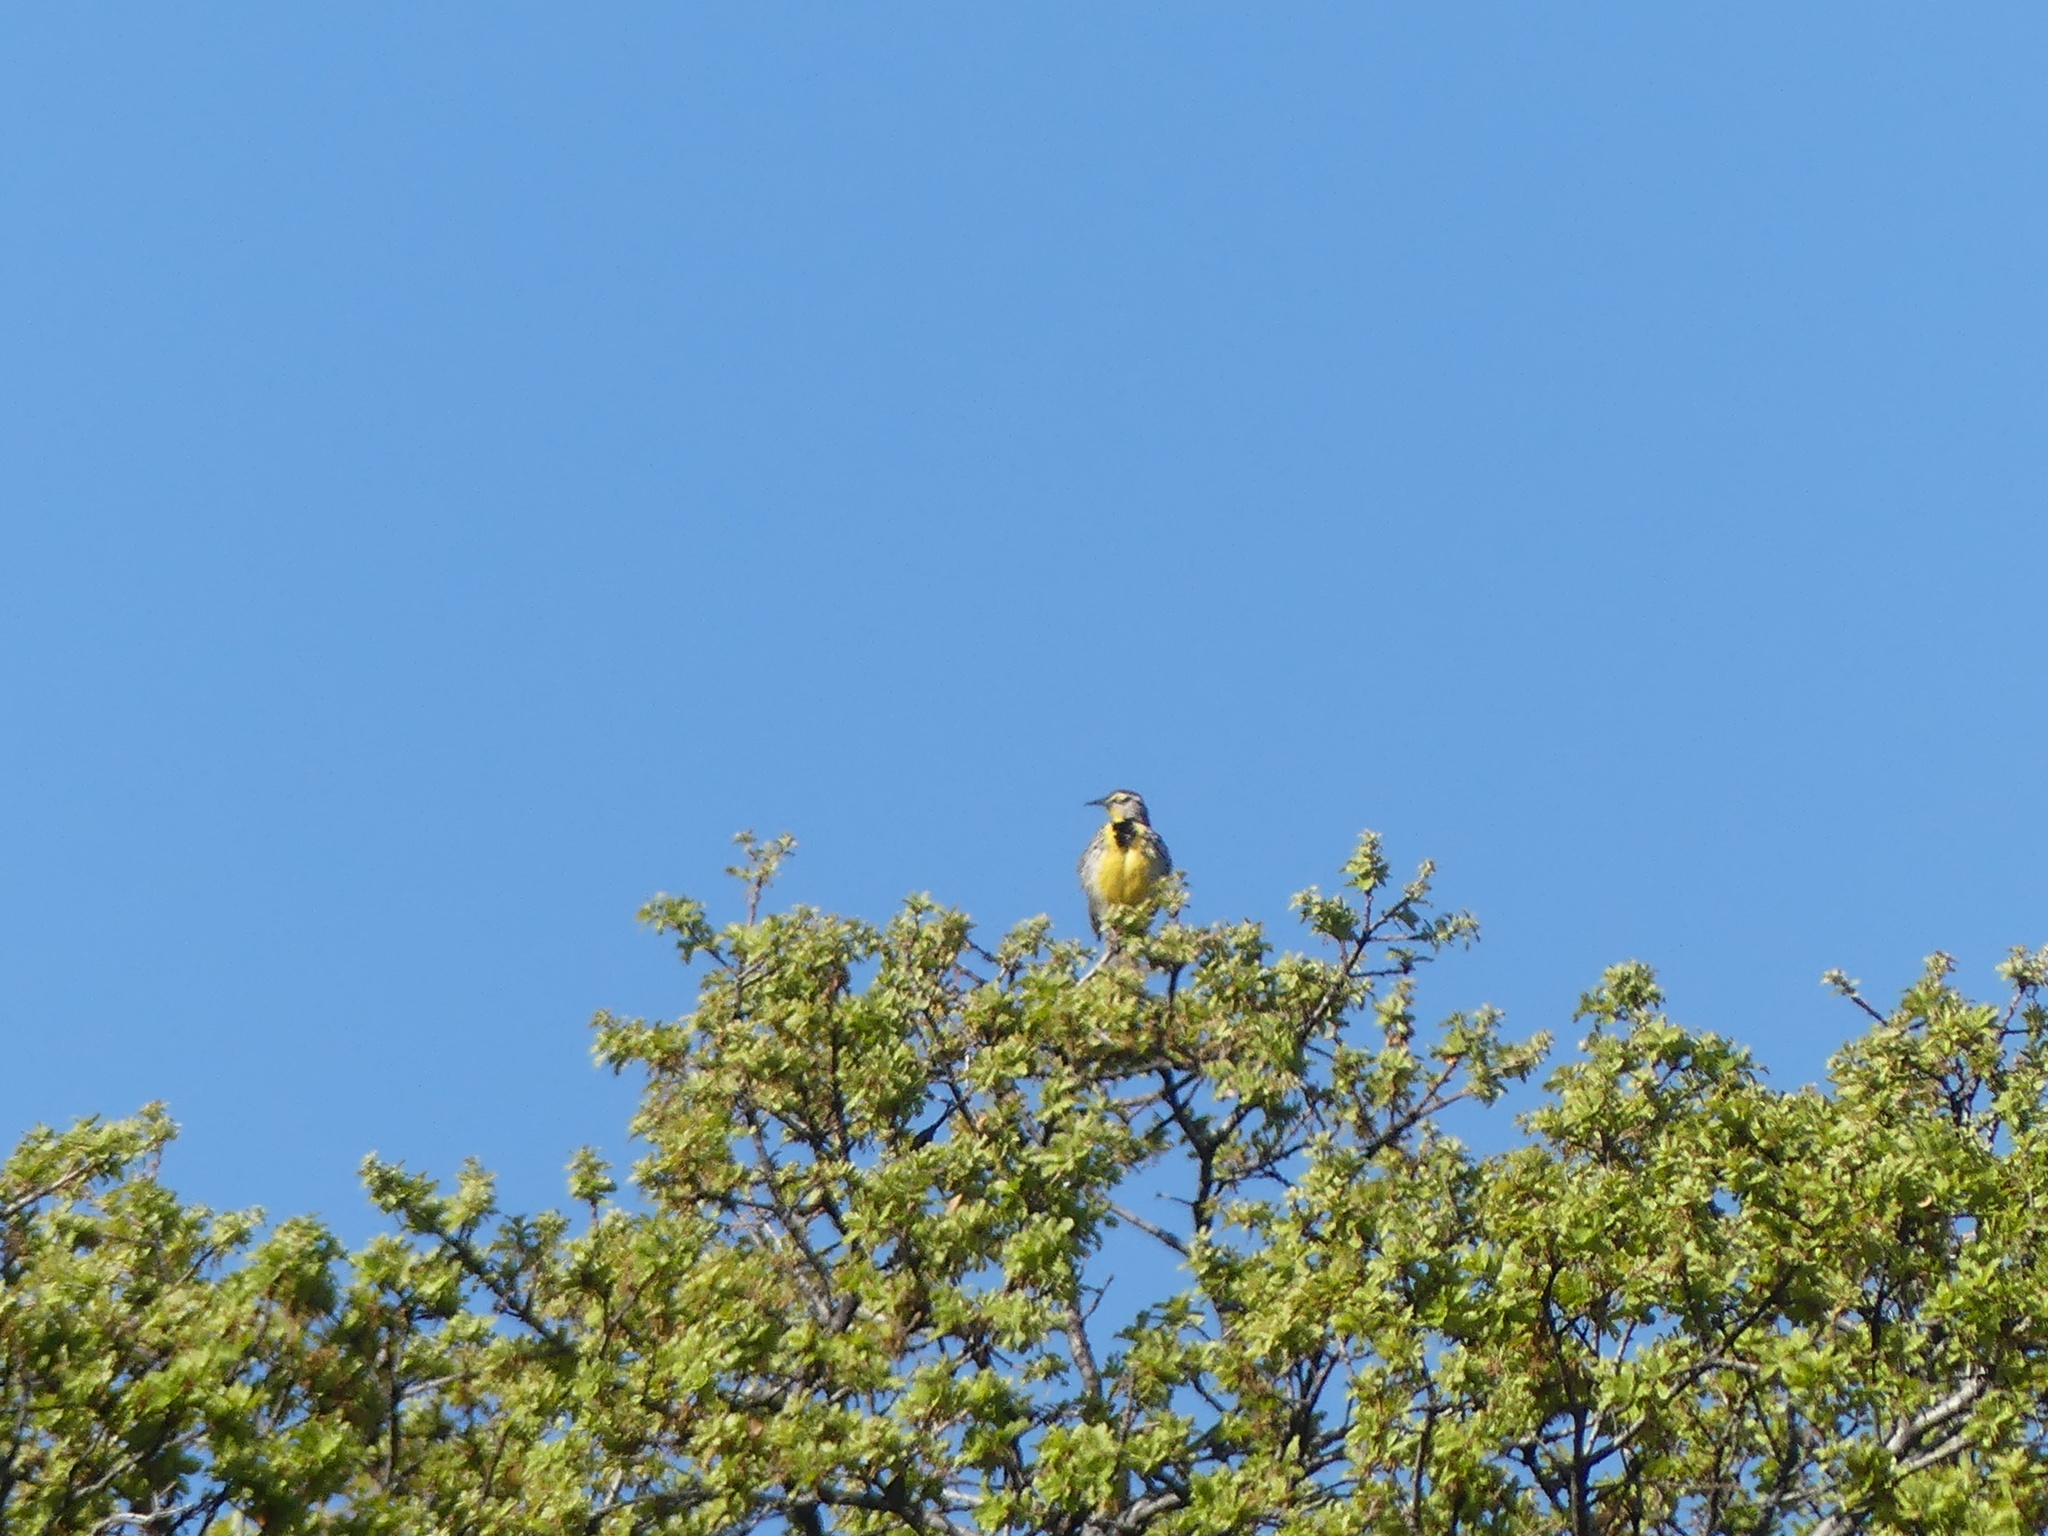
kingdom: Animalia
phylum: Chordata
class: Aves
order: Passeriformes
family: Icteridae
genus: Sturnella
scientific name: Sturnella neglecta
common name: Western meadowlark
